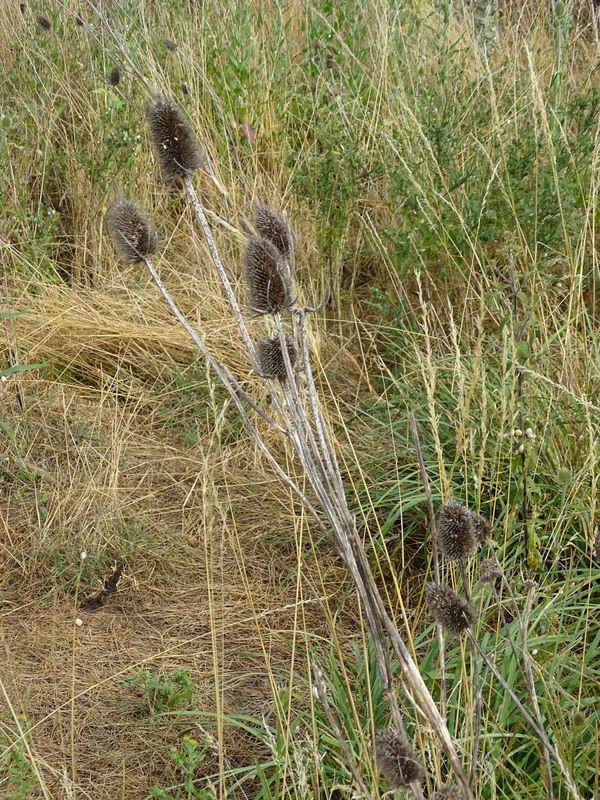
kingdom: Plantae
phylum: Tracheophyta
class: Magnoliopsida
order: Dipsacales
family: Caprifoliaceae
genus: Dipsacus
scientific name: Dipsacus fullonum
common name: Teasel
